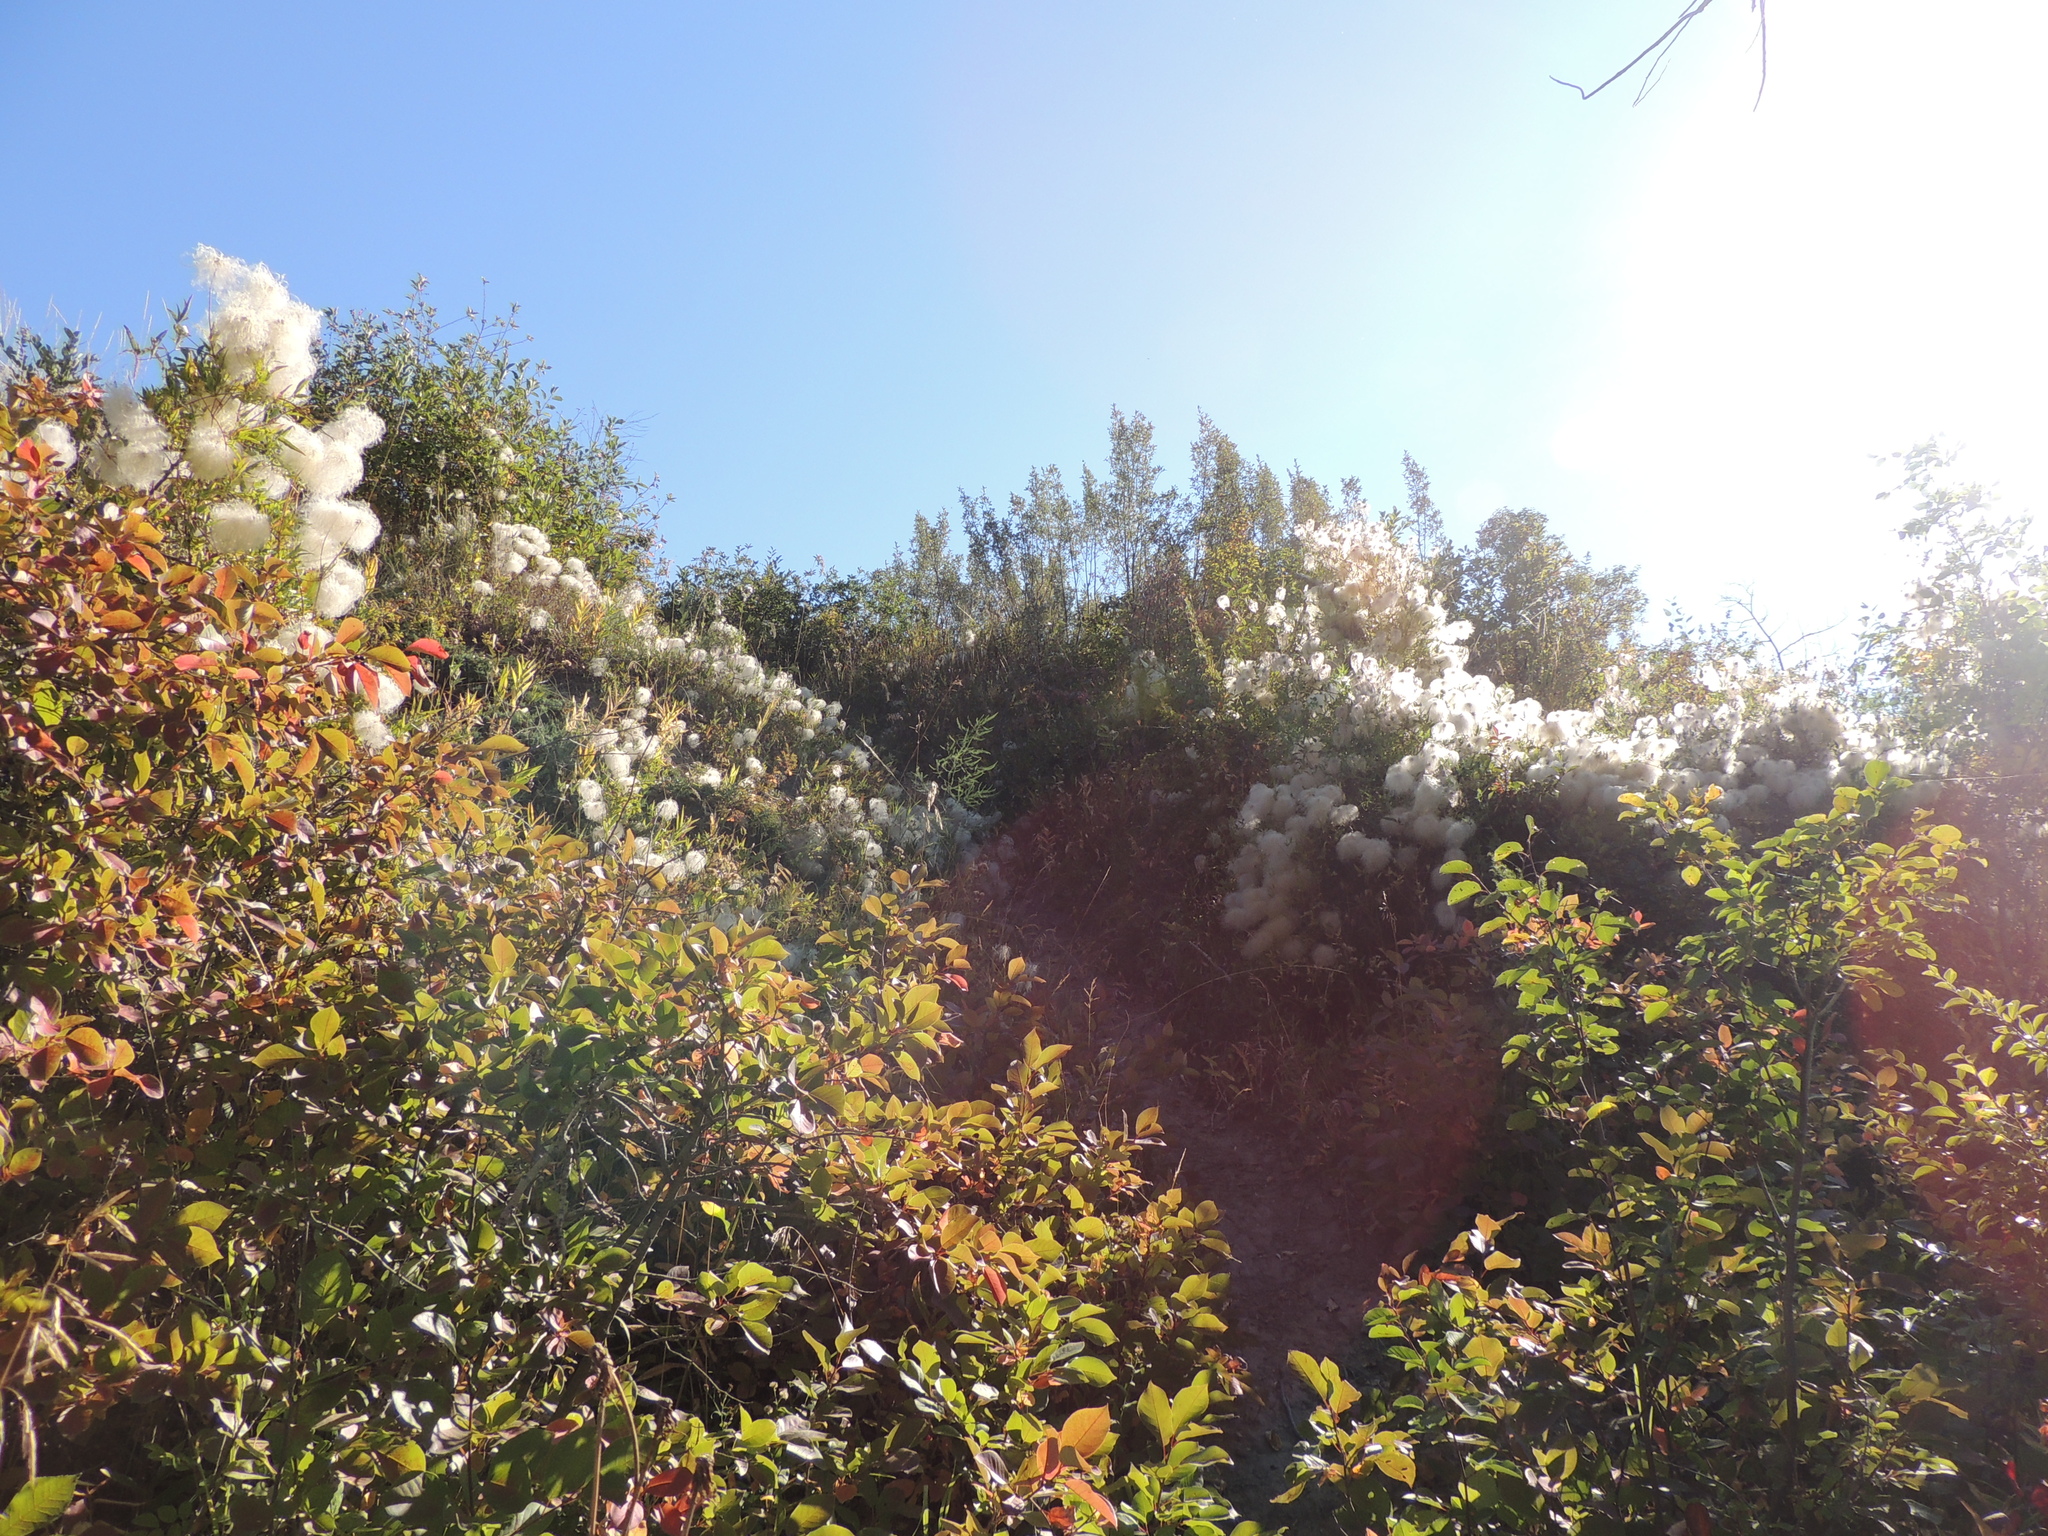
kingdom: Plantae
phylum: Tracheophyta
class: Magnoliopsida
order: Ranunculales
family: Ranunculaceae
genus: Clematis
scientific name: Clematis tangutica
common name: Orange-peel clematis
